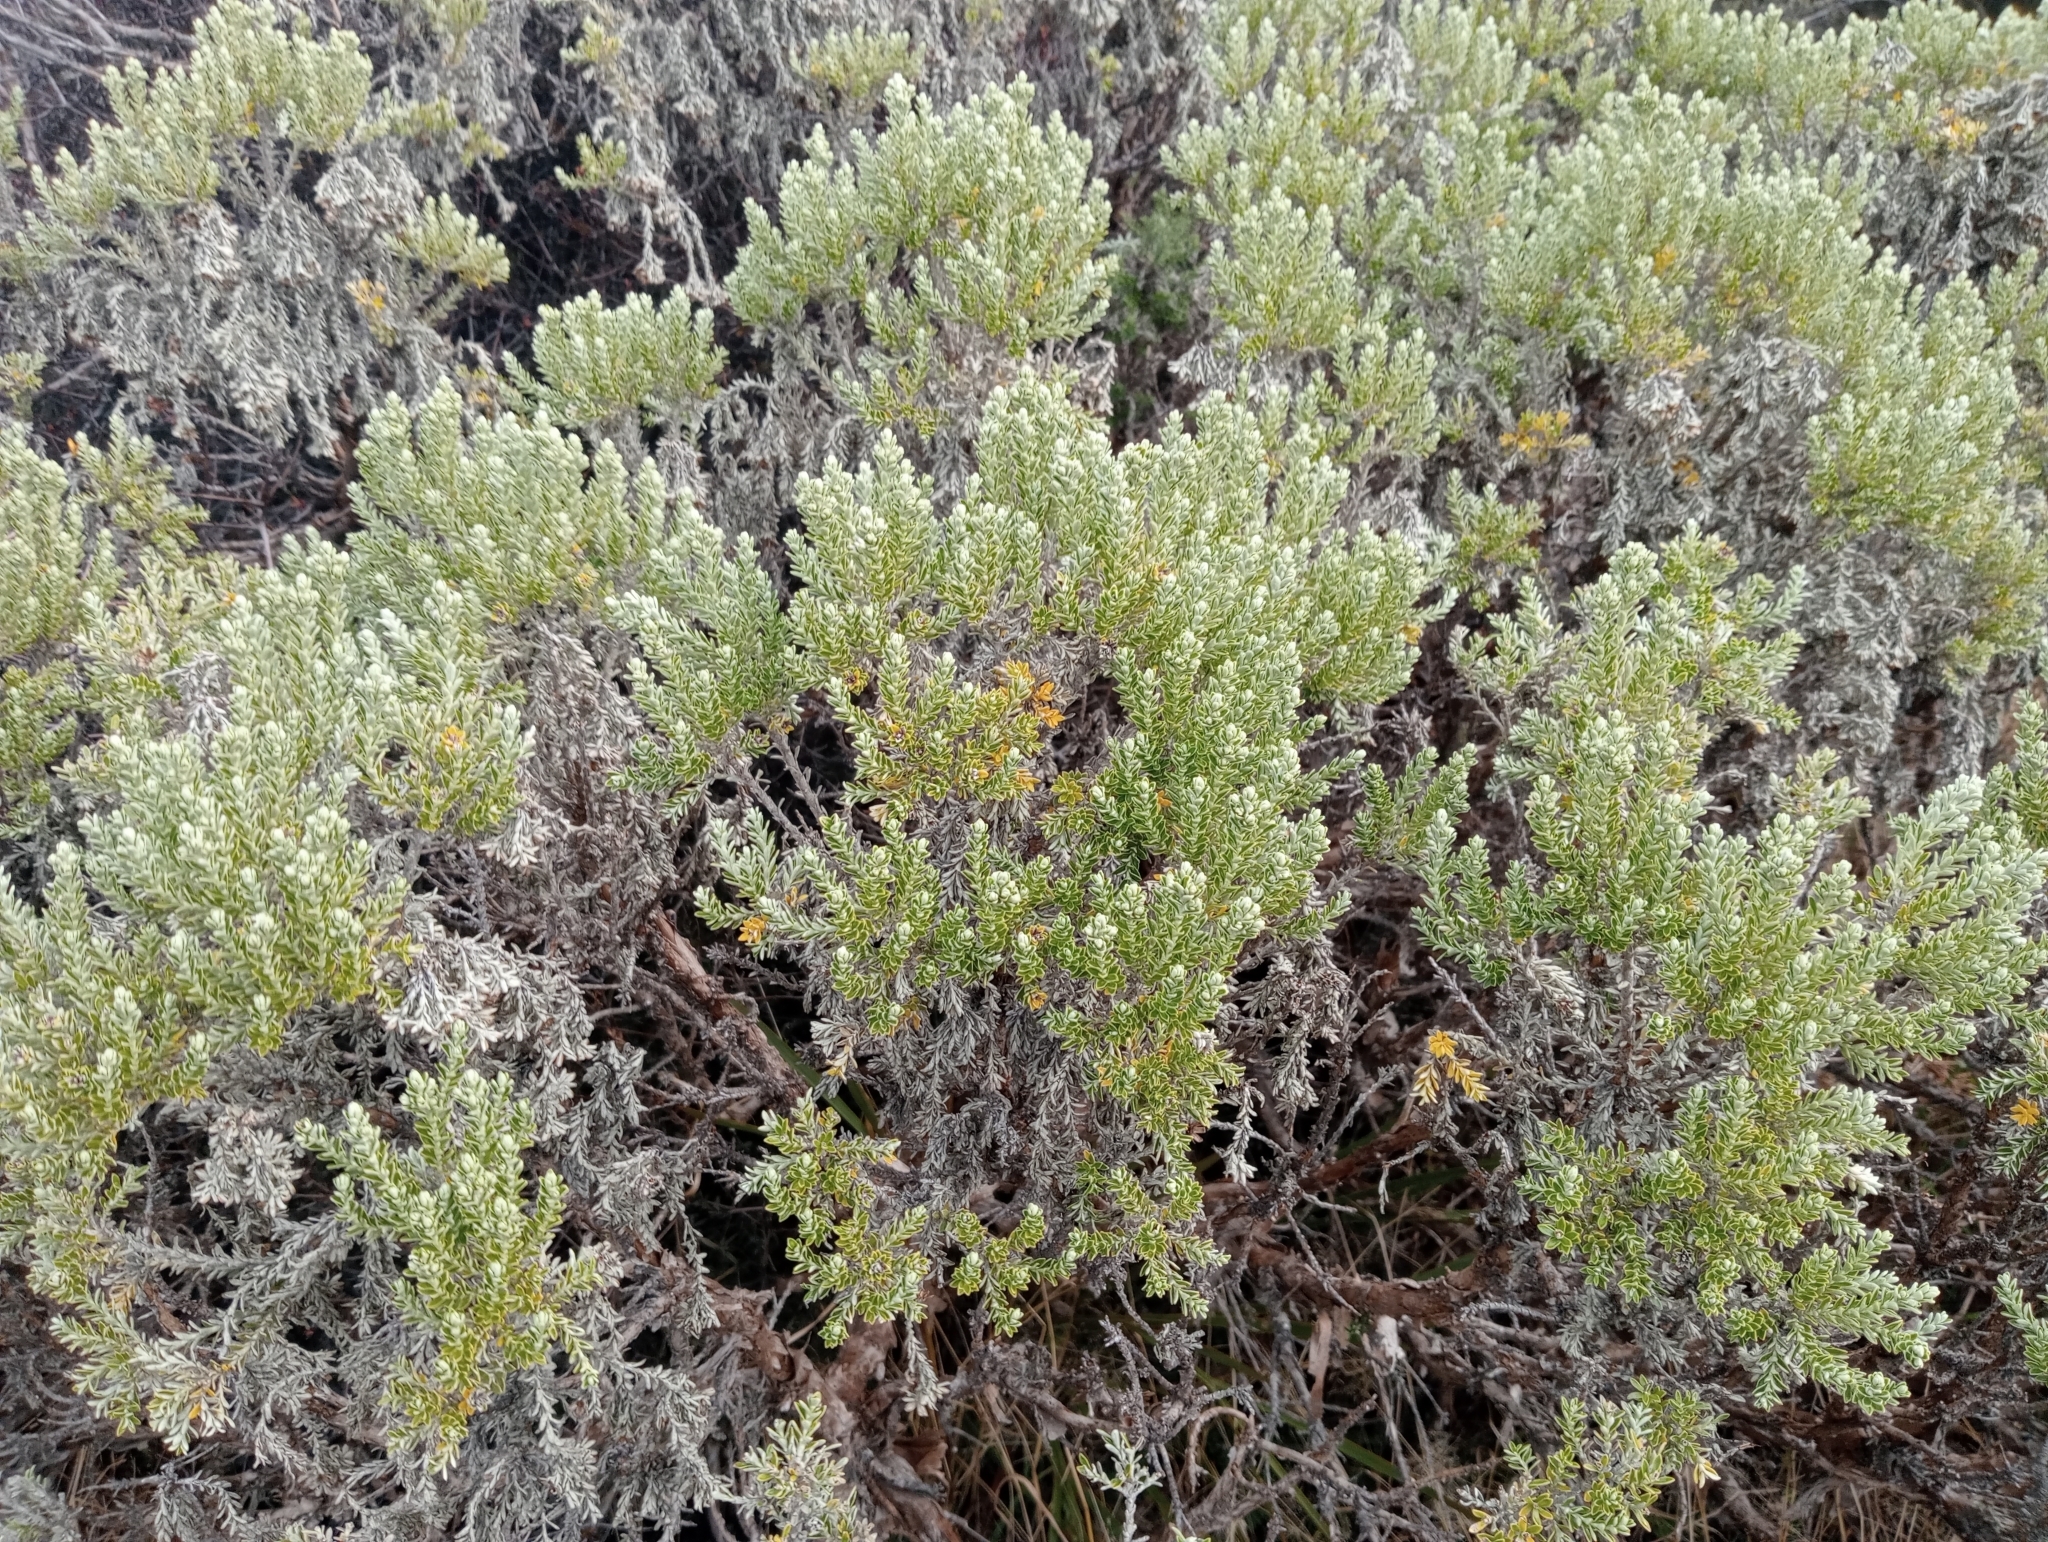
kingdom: Plantae
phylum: Tracheophyta
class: Magnoliopsida
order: Asterales
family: Asteraceae
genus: Brachyglottis
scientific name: Brachyglottis cassinioides
